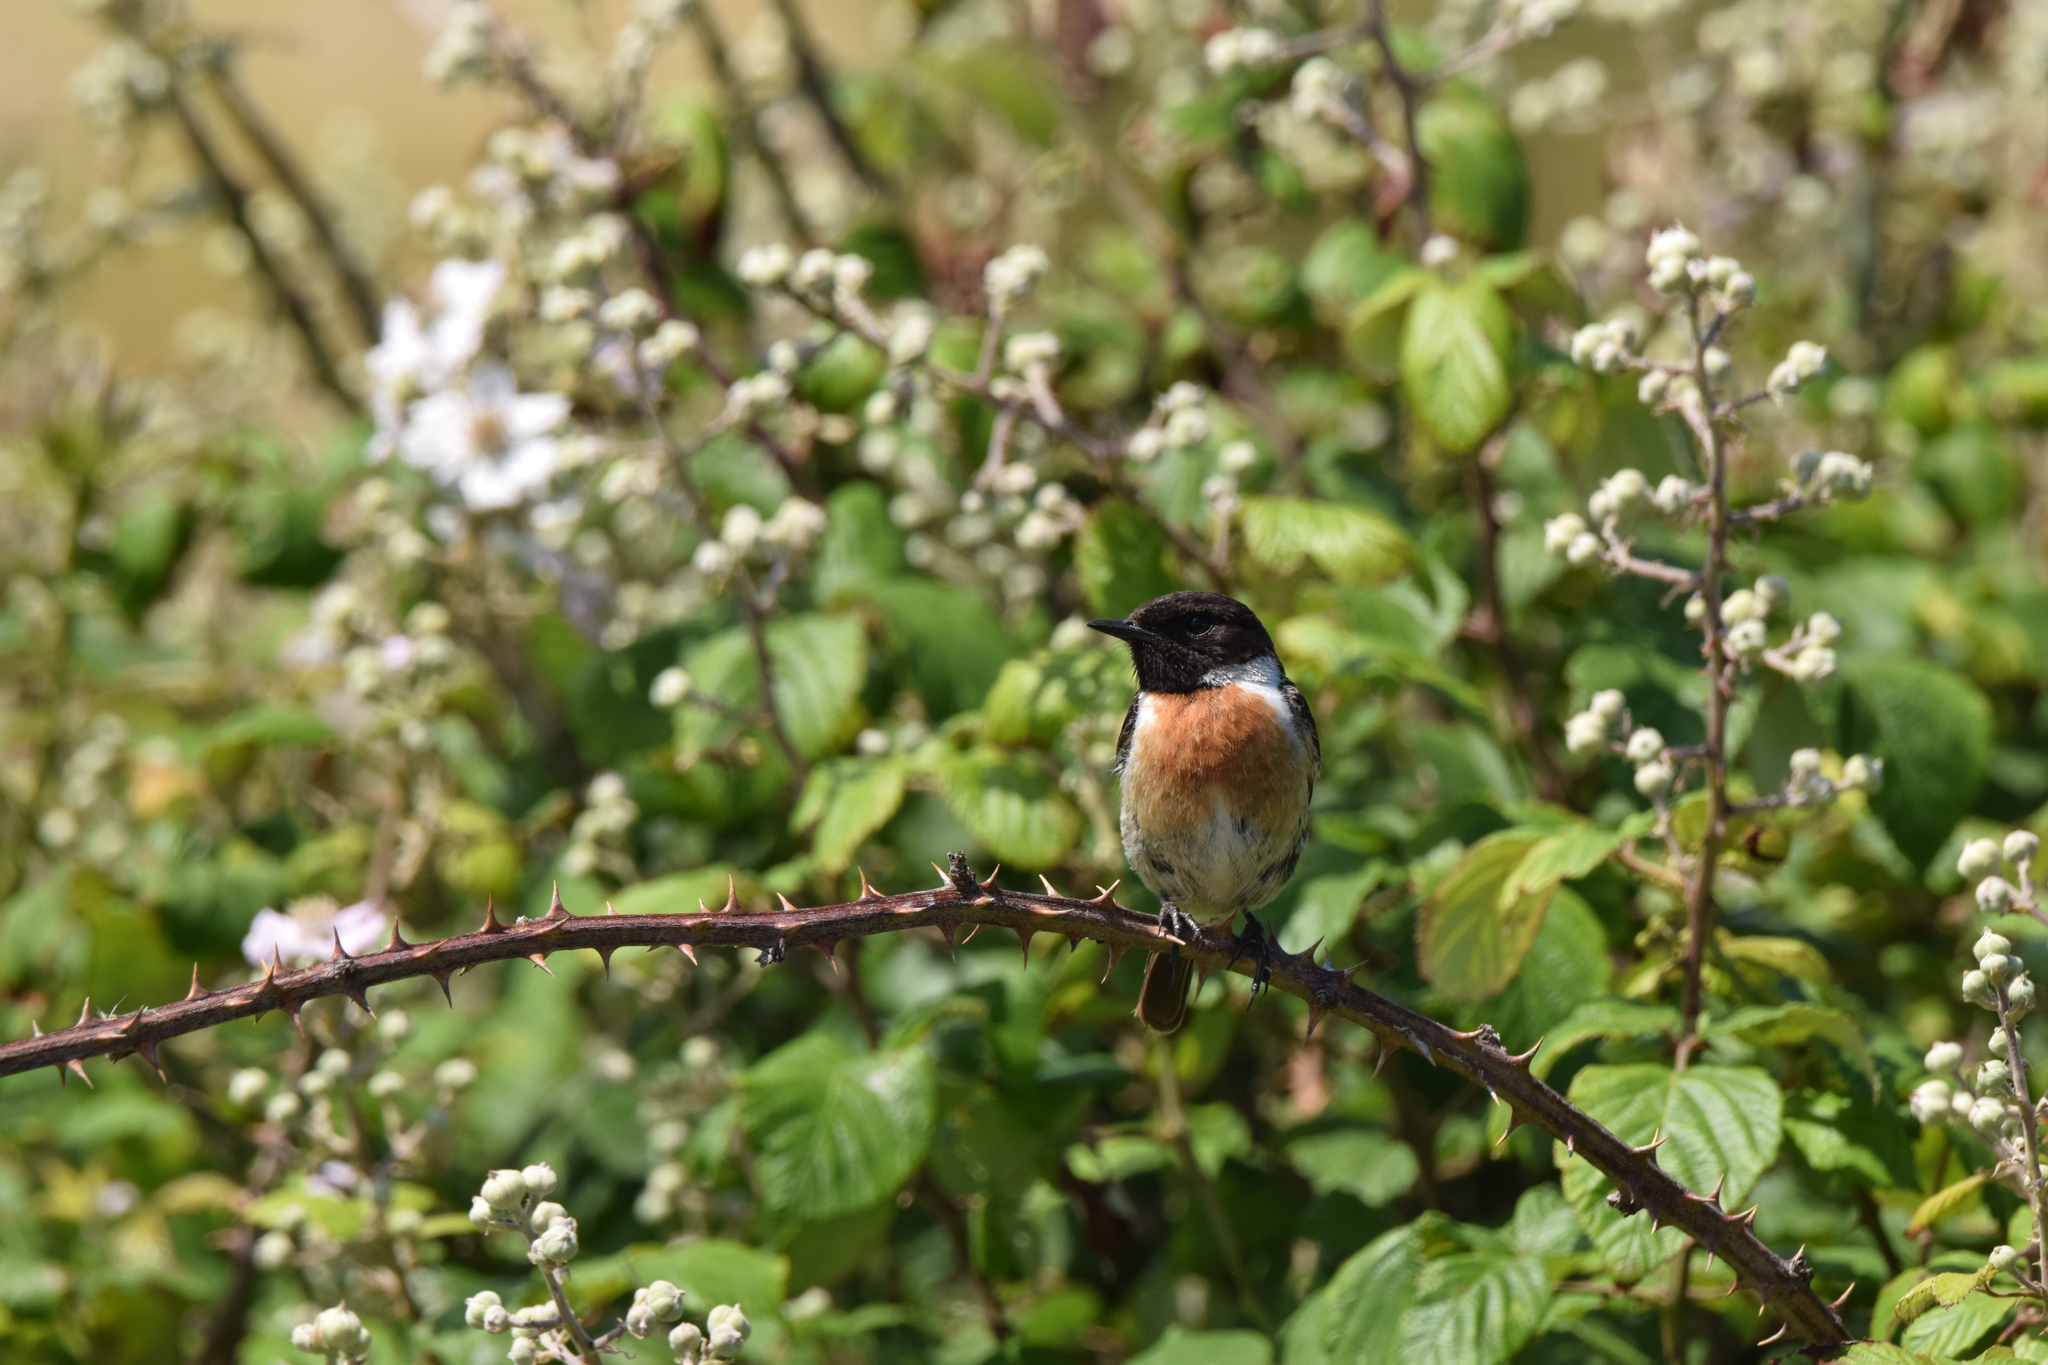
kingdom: Animalia
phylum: Chordata
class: Aves
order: Passeriformes
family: Muscicapidae
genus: Saxicola
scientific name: Saxicola rubicola
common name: European stonechat
